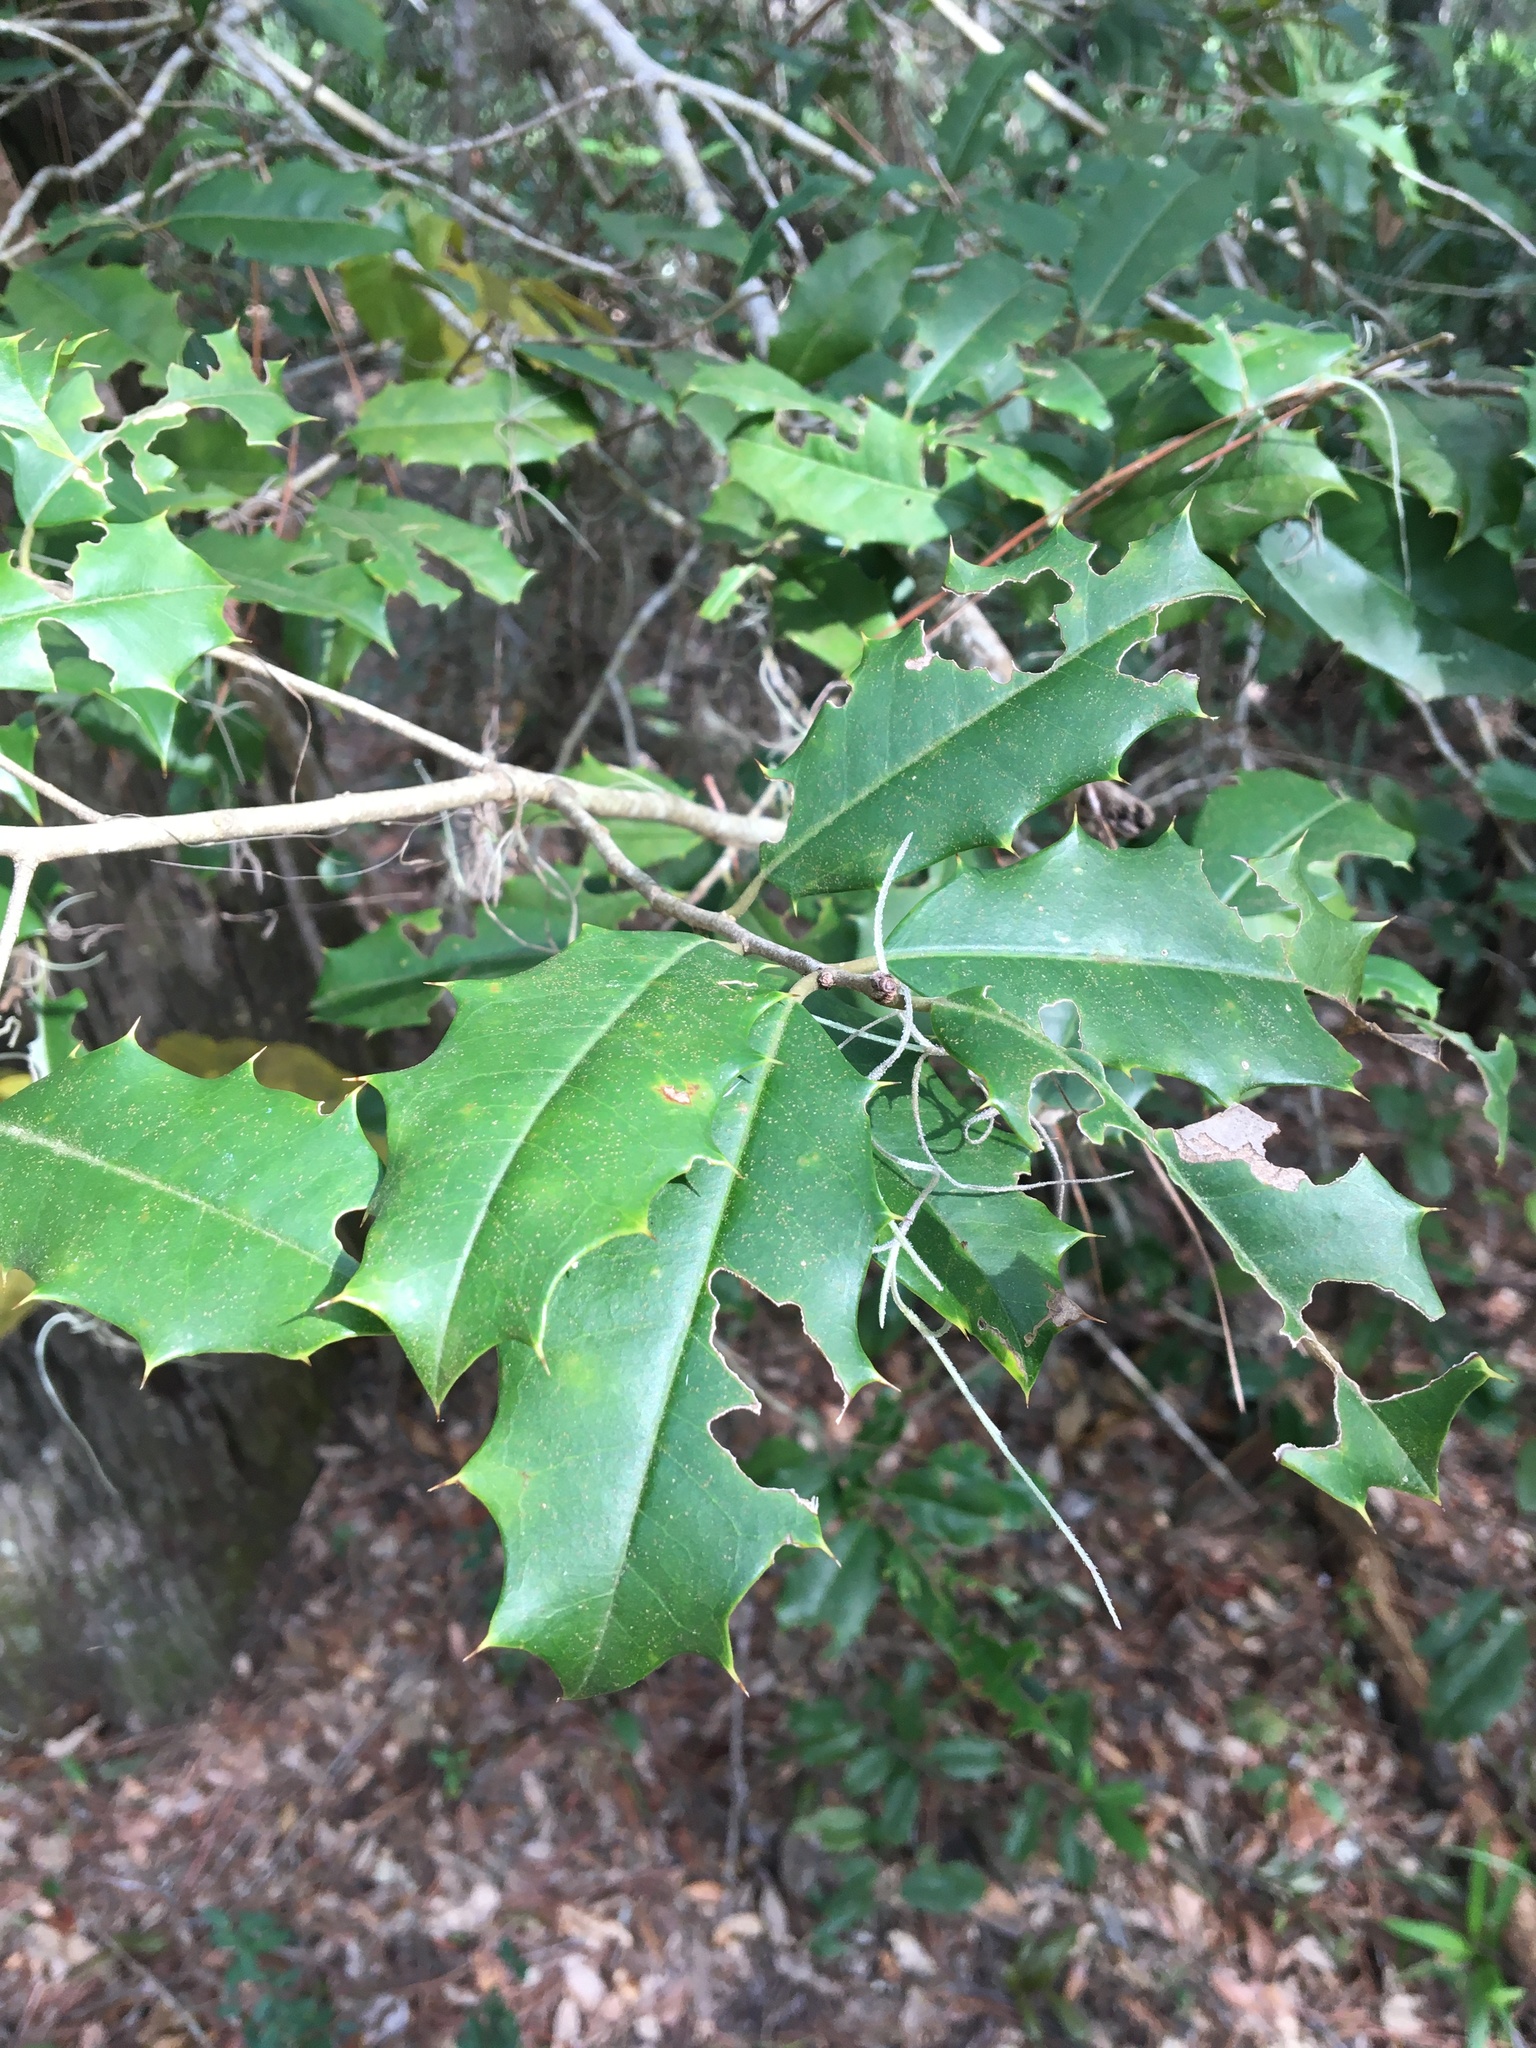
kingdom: Plantae
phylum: Tracheophyta
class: Magnoliopsida
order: Aquifoliales
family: Aquifoliaceae
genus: Ilex
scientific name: Ilex opaca
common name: American holly
